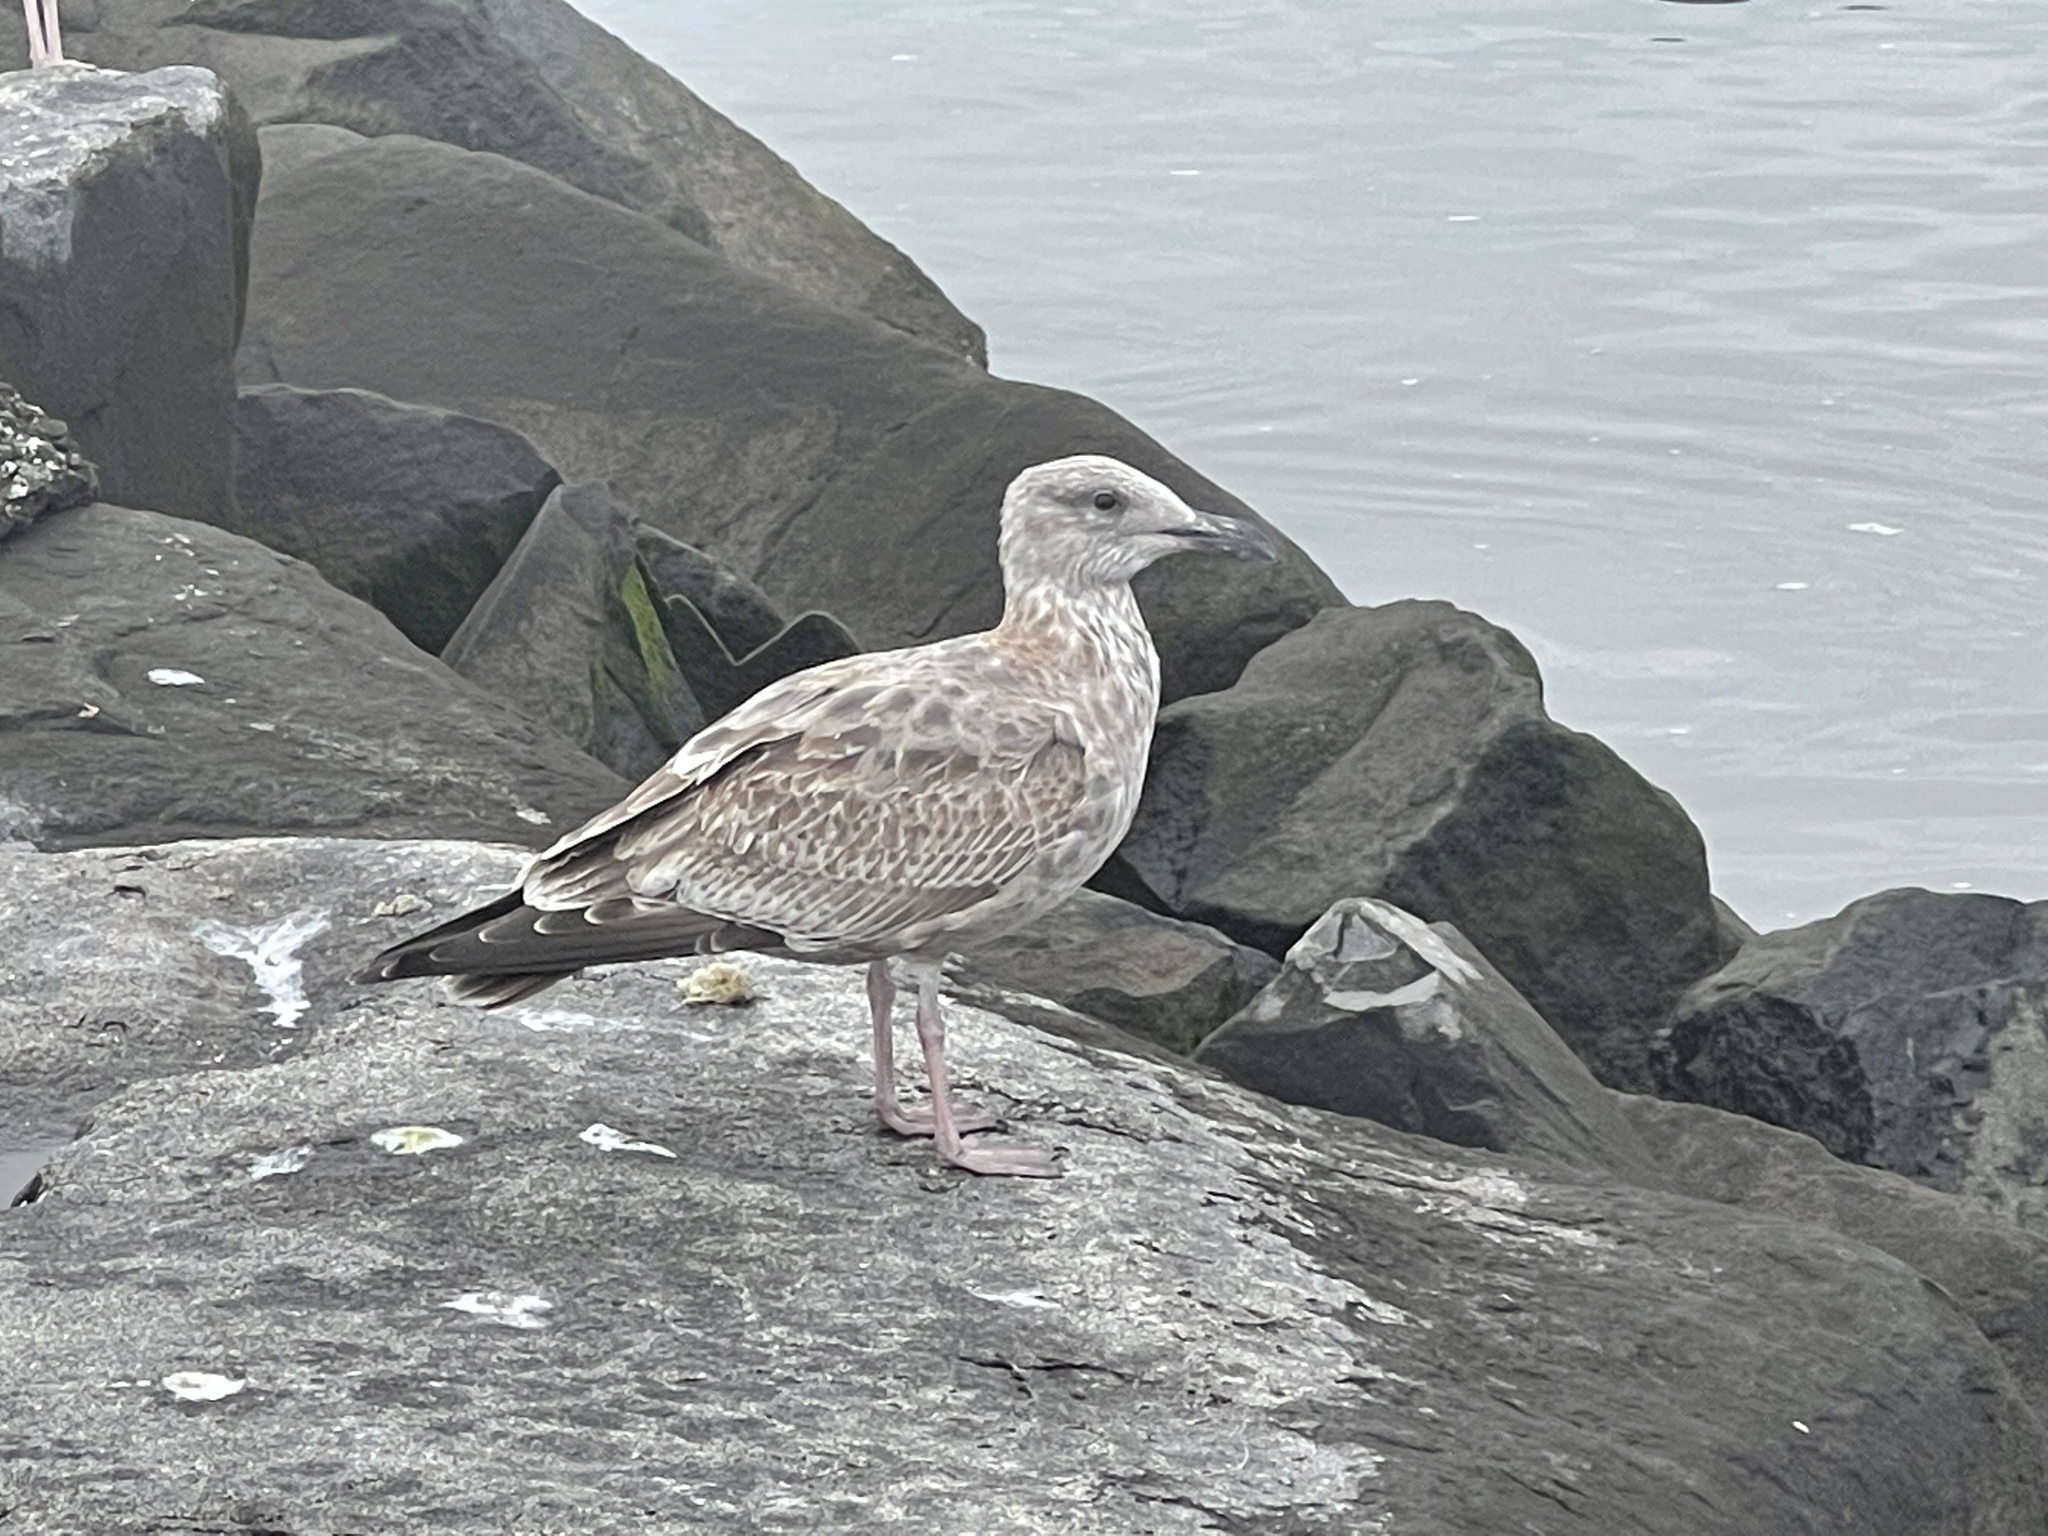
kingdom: Animalia
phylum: Chordata
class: Aves
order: Charadriiformes
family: Laridae
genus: Larus
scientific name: Larus argentatus
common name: Herring gull
